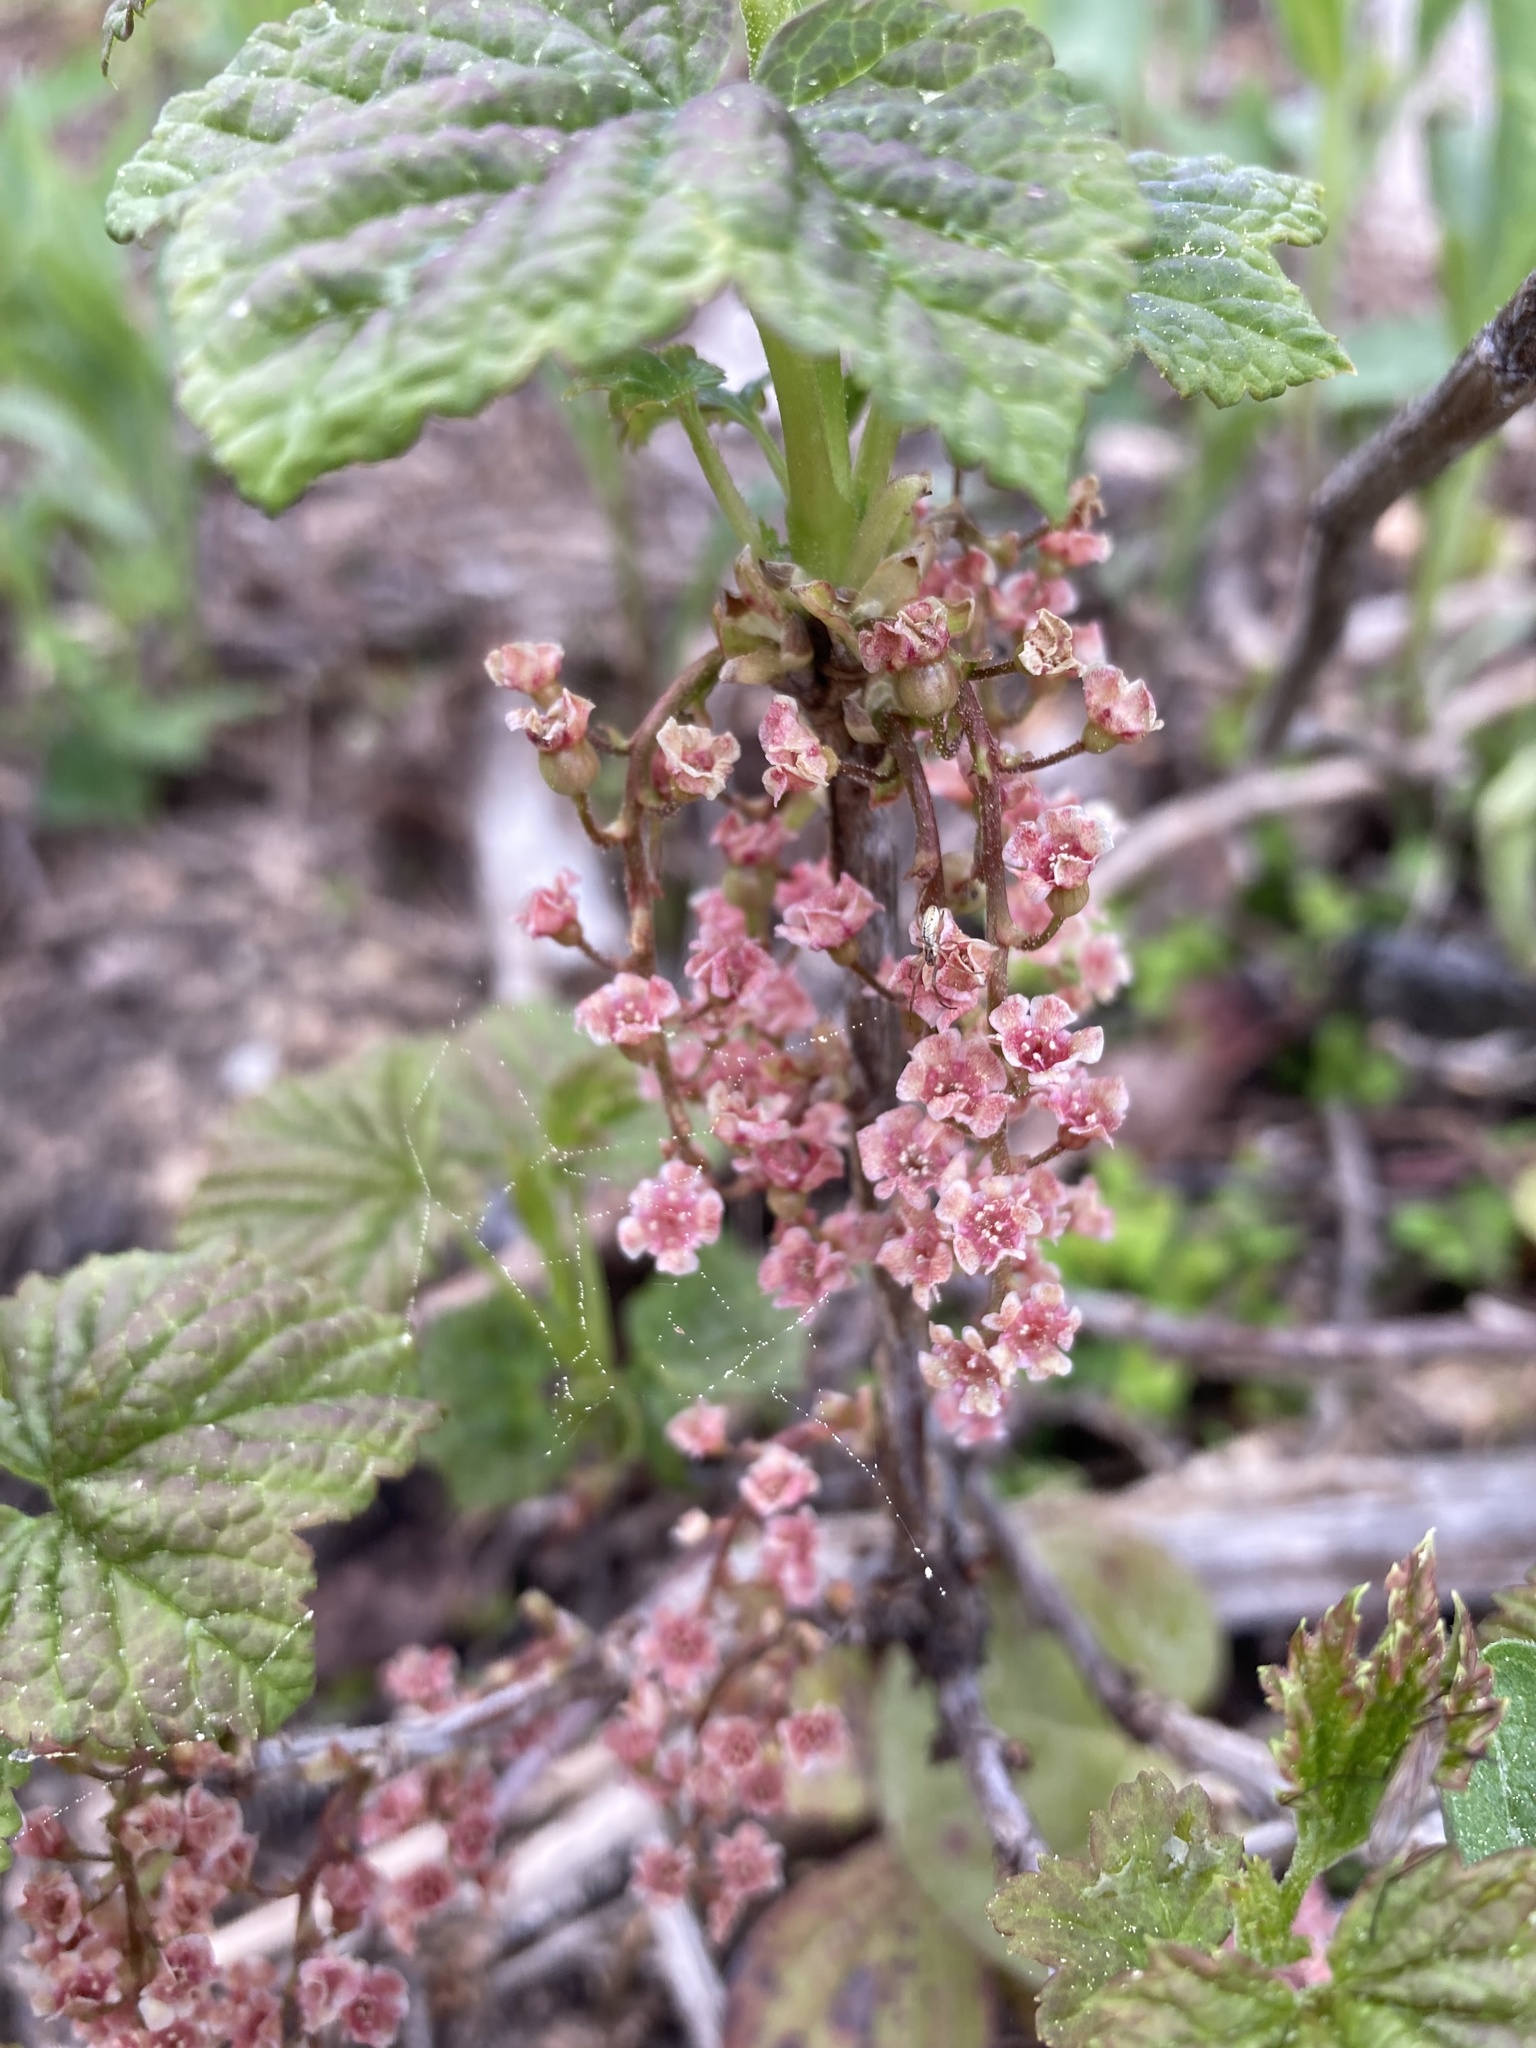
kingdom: Plantae
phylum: Tracheophyta
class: Magnoliopsida
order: Saxifragales
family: Grossulariaceae
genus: Ribes
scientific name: Ribes triste
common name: Swamp red currant
